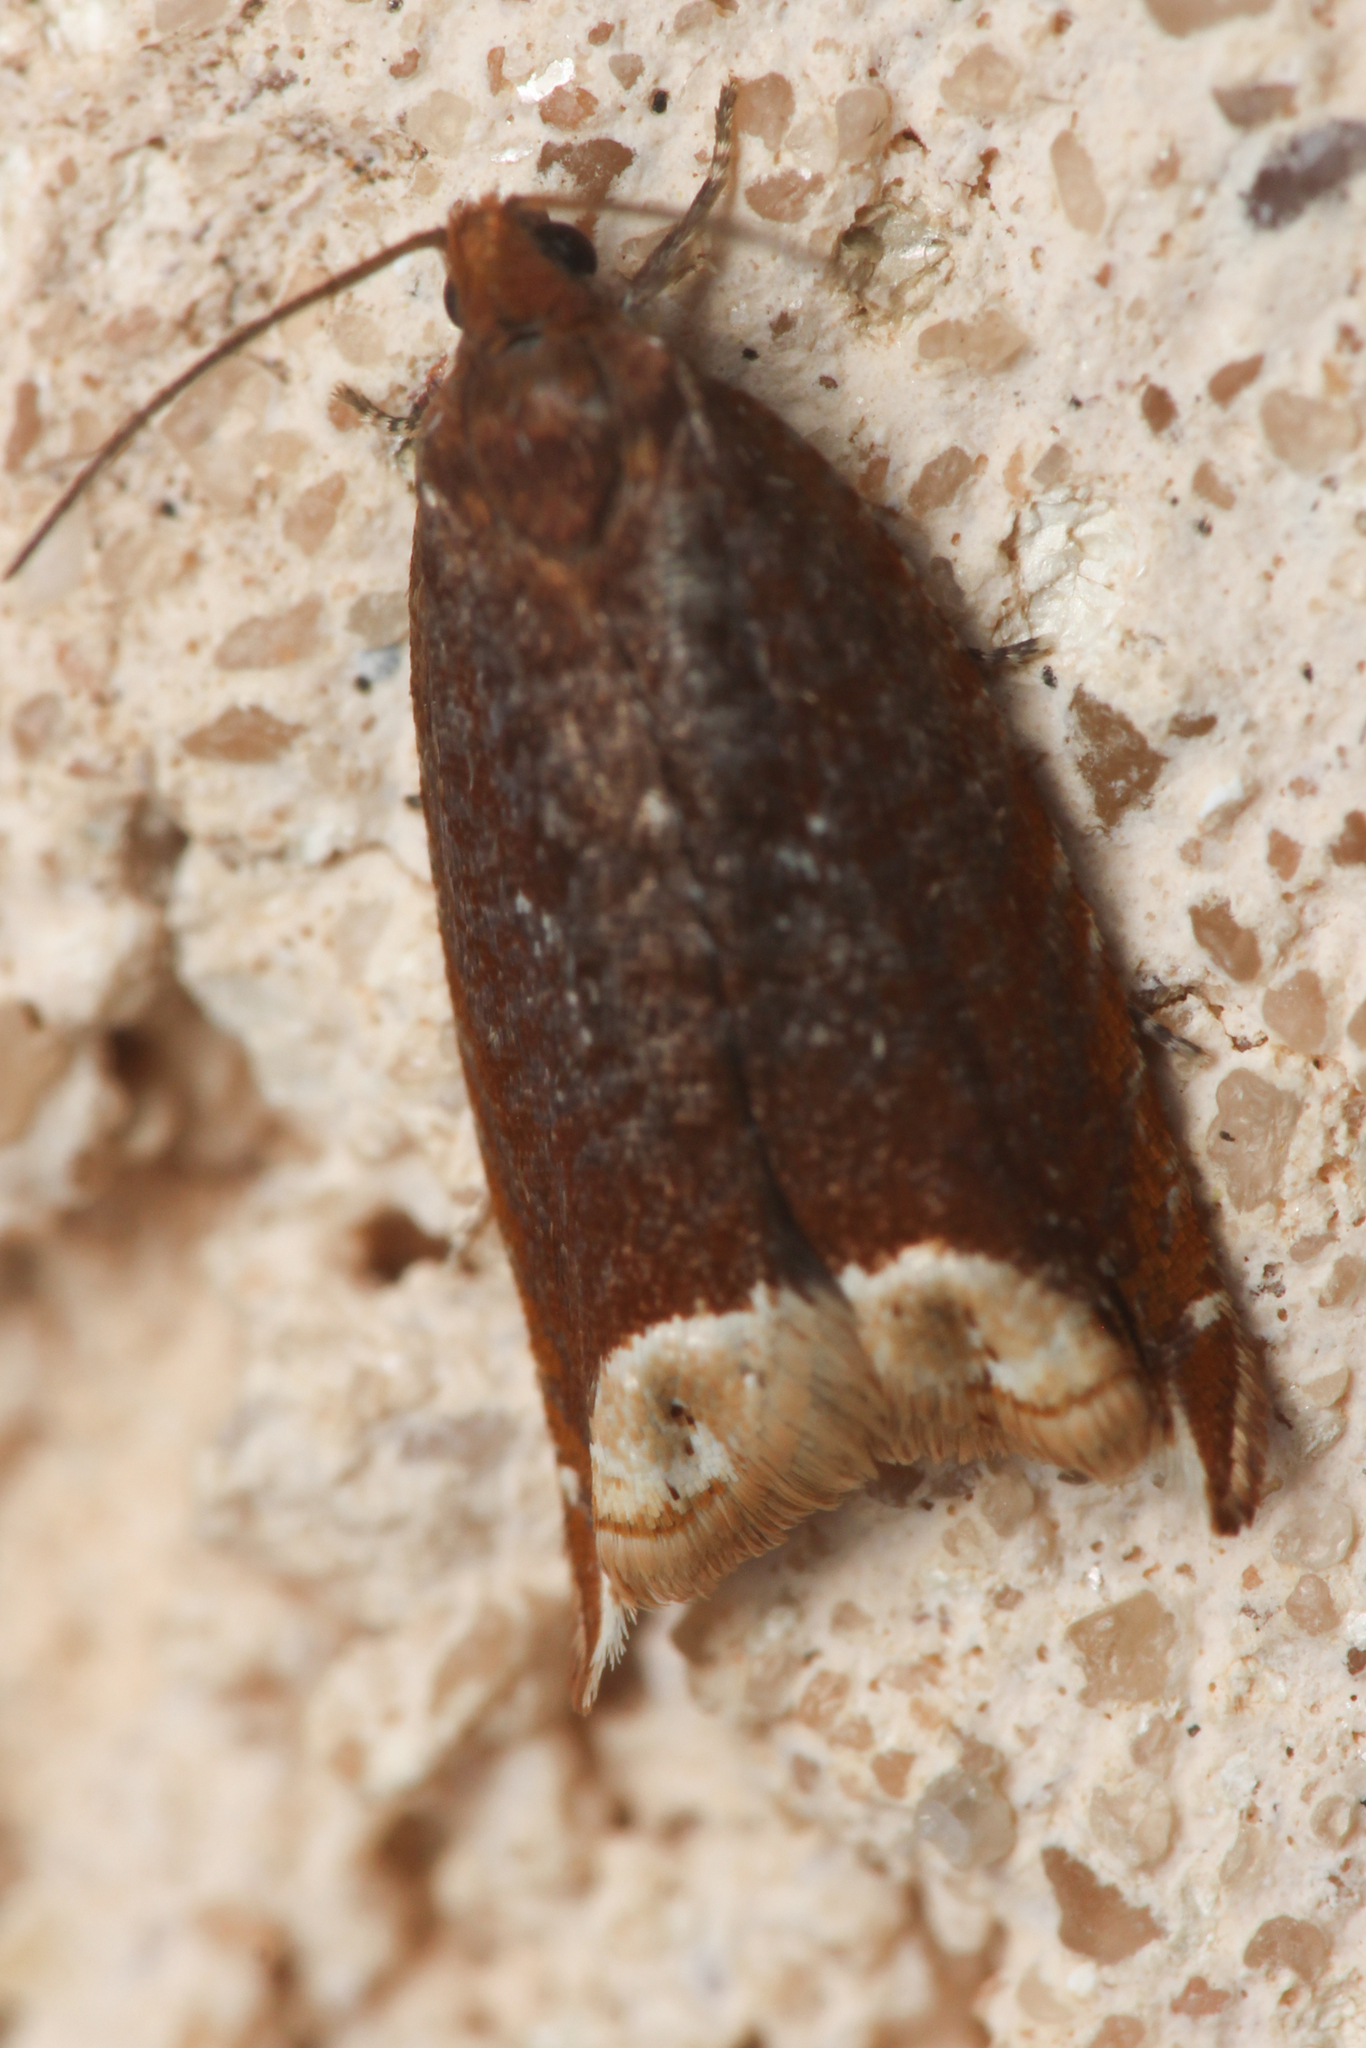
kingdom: Animalia
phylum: Arthropoda
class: Insecta
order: Lepidoptera
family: Tortricidae
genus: Ancylis
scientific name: Ancylis selenana
